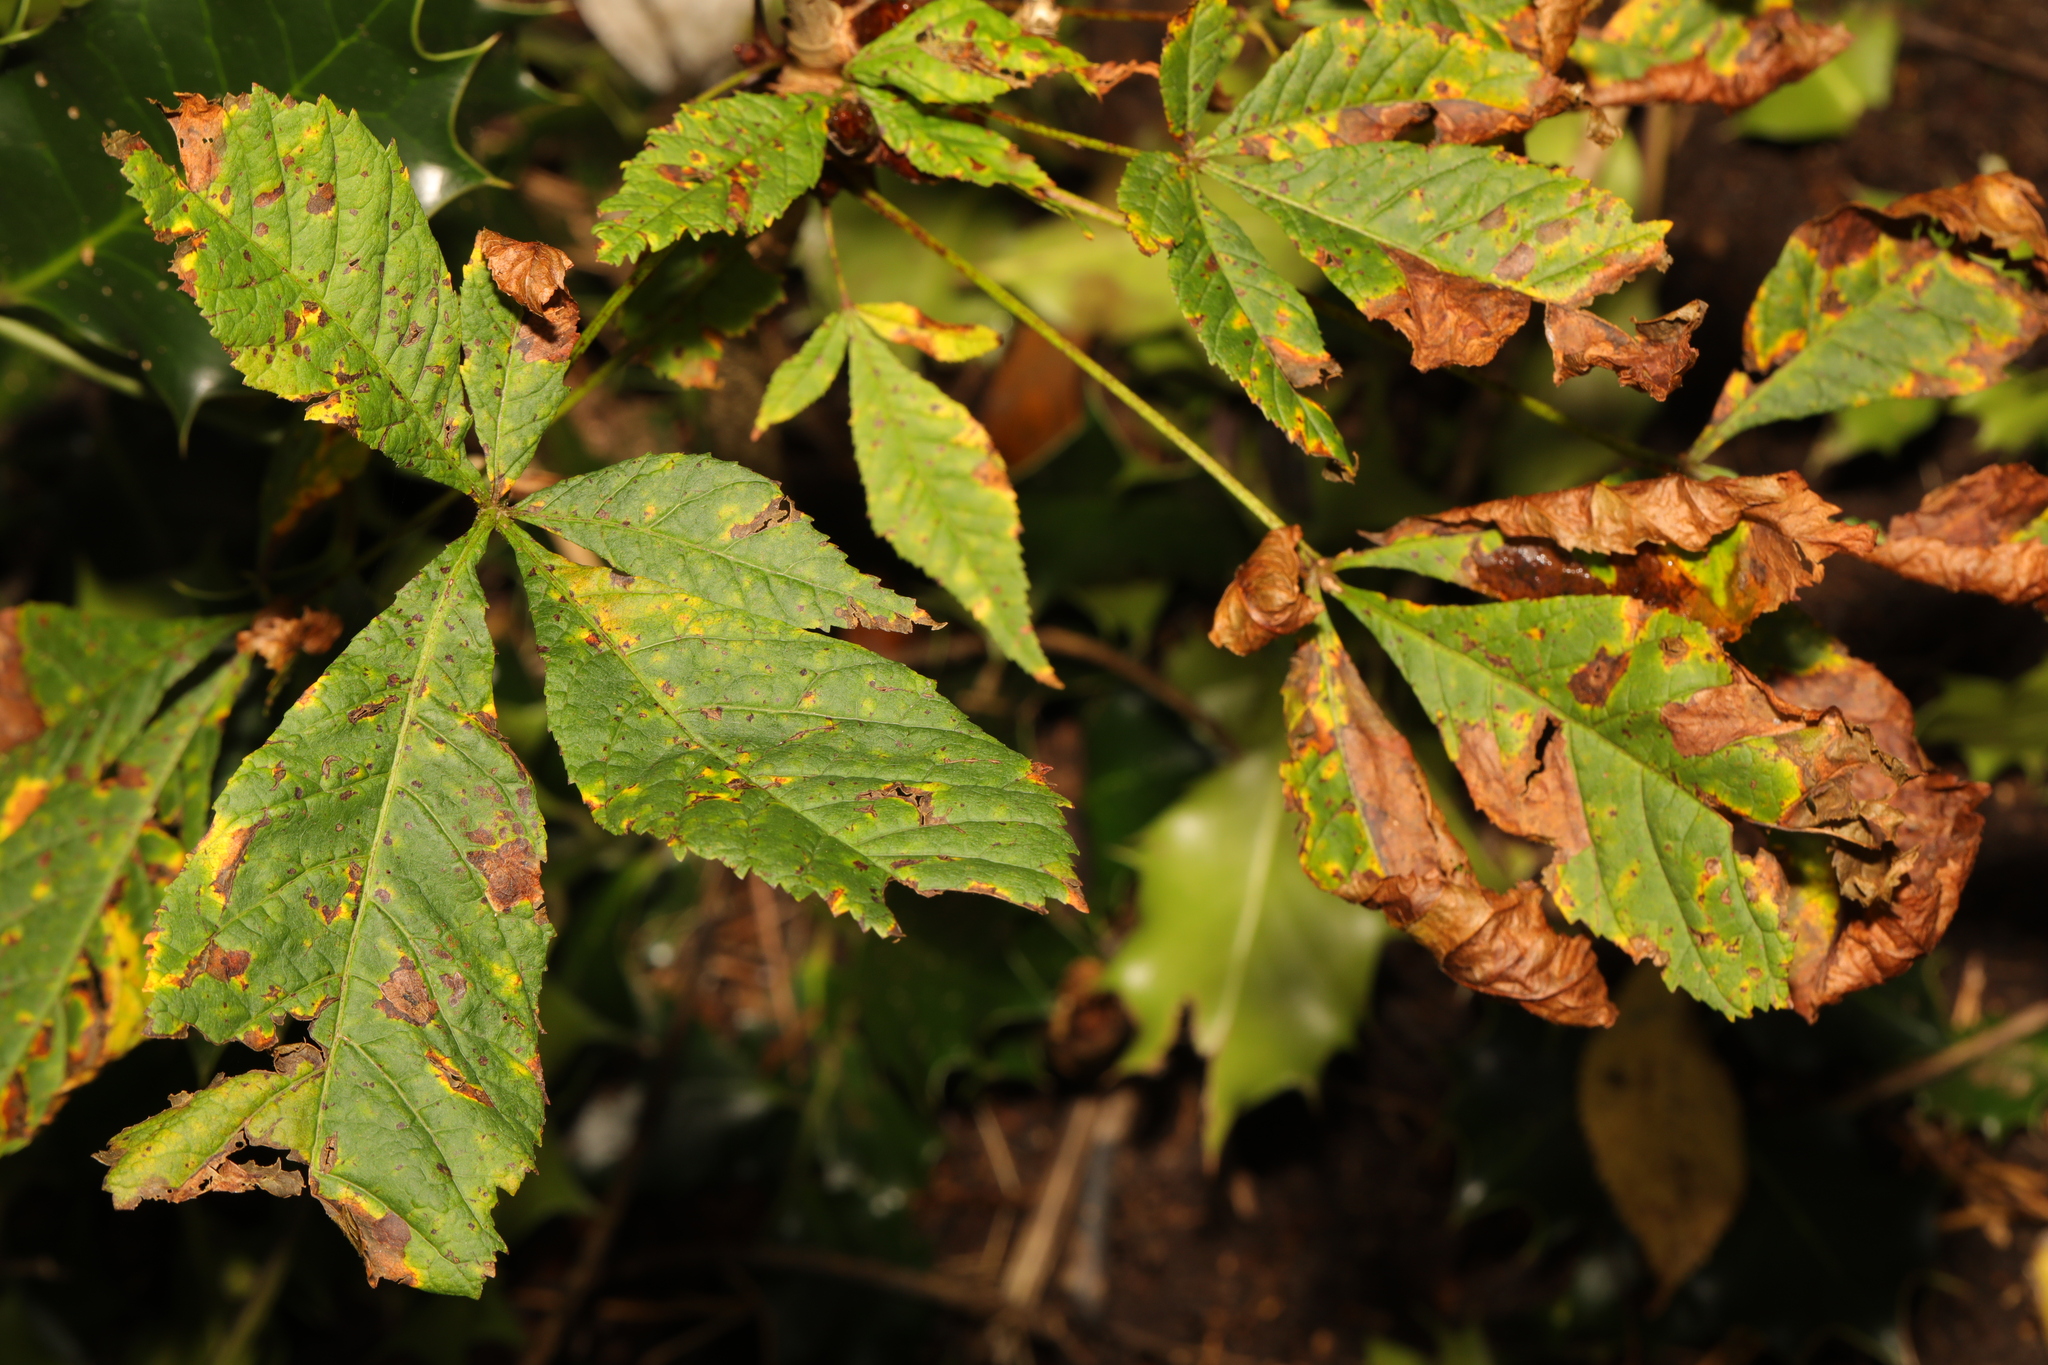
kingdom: Plantae
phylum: Tracheophyta
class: Magnoliopsida
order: Sapindales
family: Sapindaceae
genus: Aesculus
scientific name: Aesculus hippocastanum
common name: Horse-chestnut
